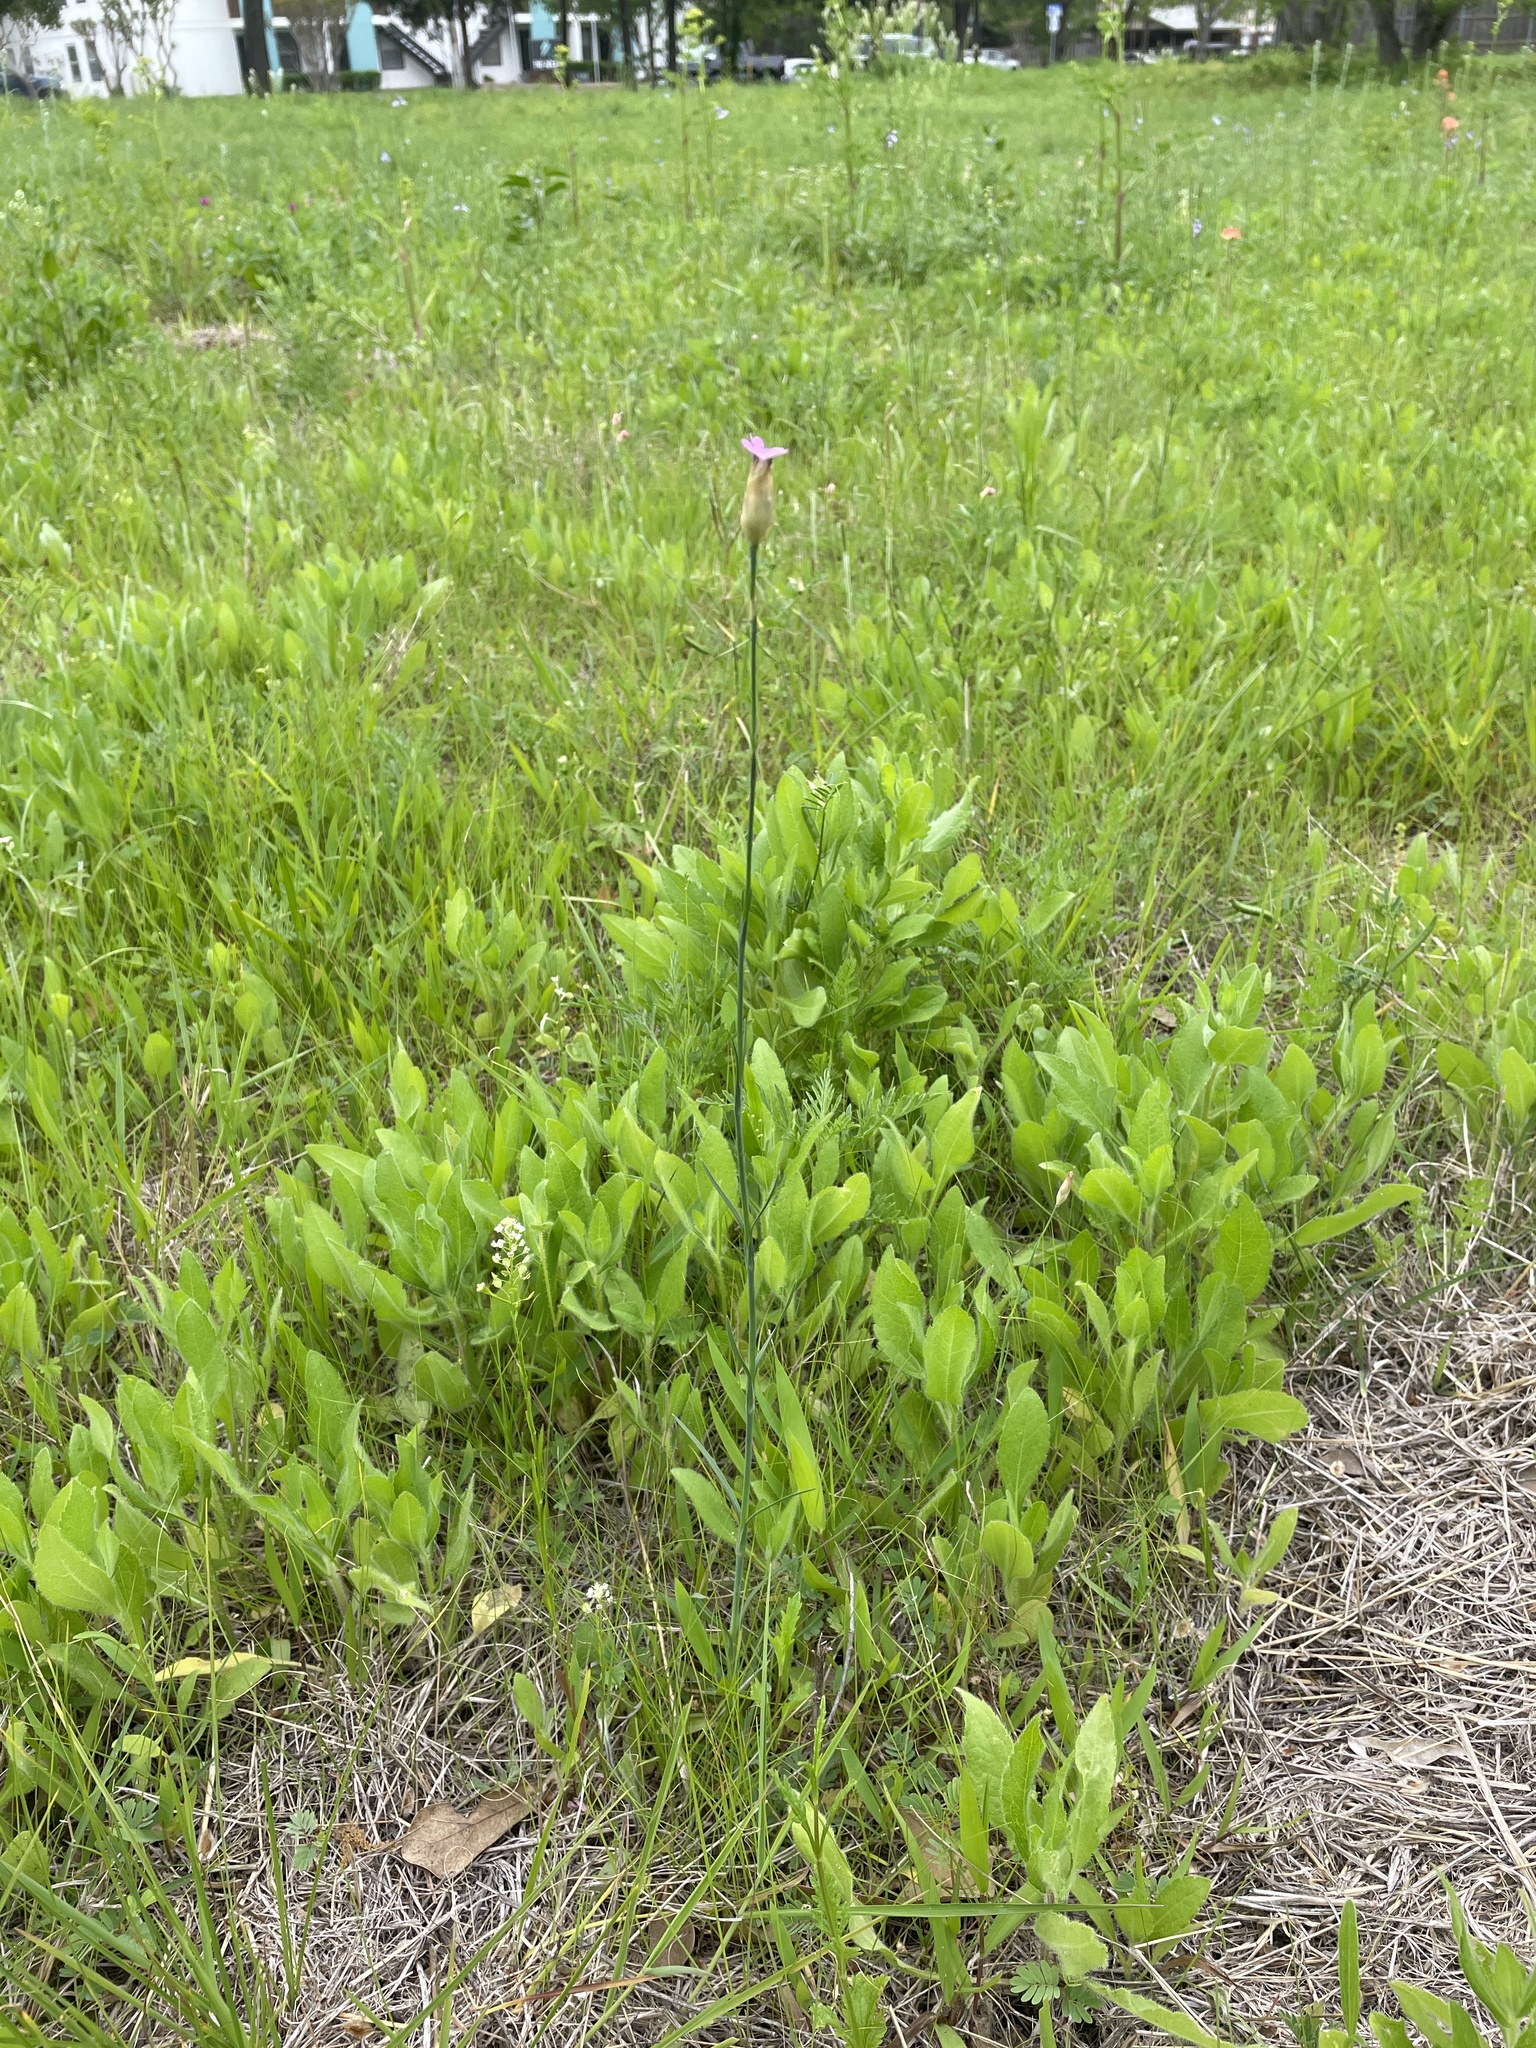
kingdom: Plantae
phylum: Tracheophyta
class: Magnoliopsida
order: Caryophyllales
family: Caryophyllaceae
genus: Petrorhagia
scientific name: Petrorhagia dubia
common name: Hairypink
